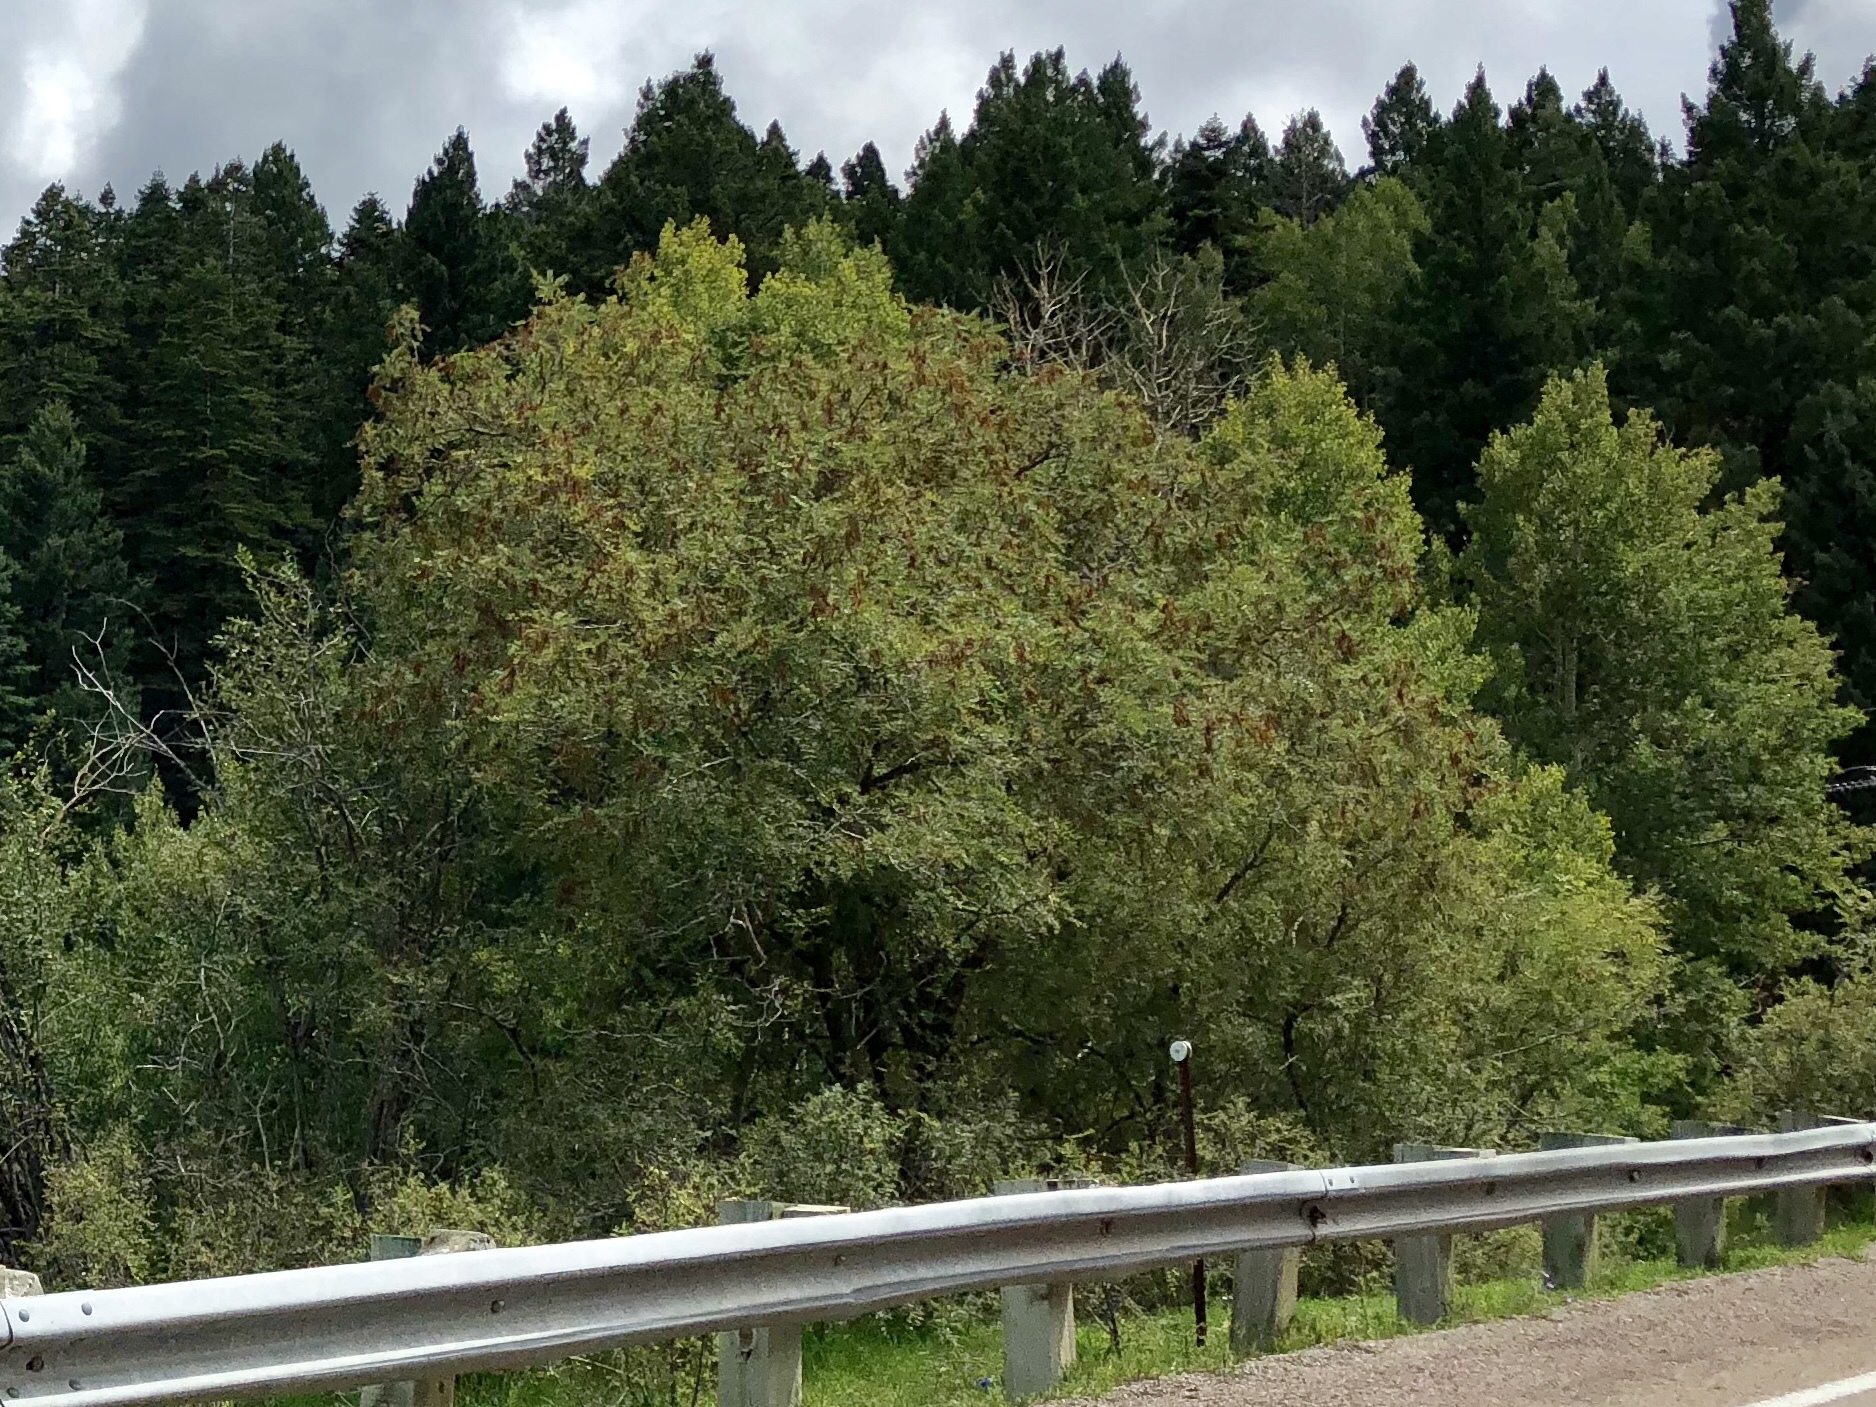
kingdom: Plantae
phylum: Tracheophyta
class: Magnoliopsida
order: Fabales
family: Fabaceae
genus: Robinia
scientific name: Robinia neomexicana
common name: New mexico locust
